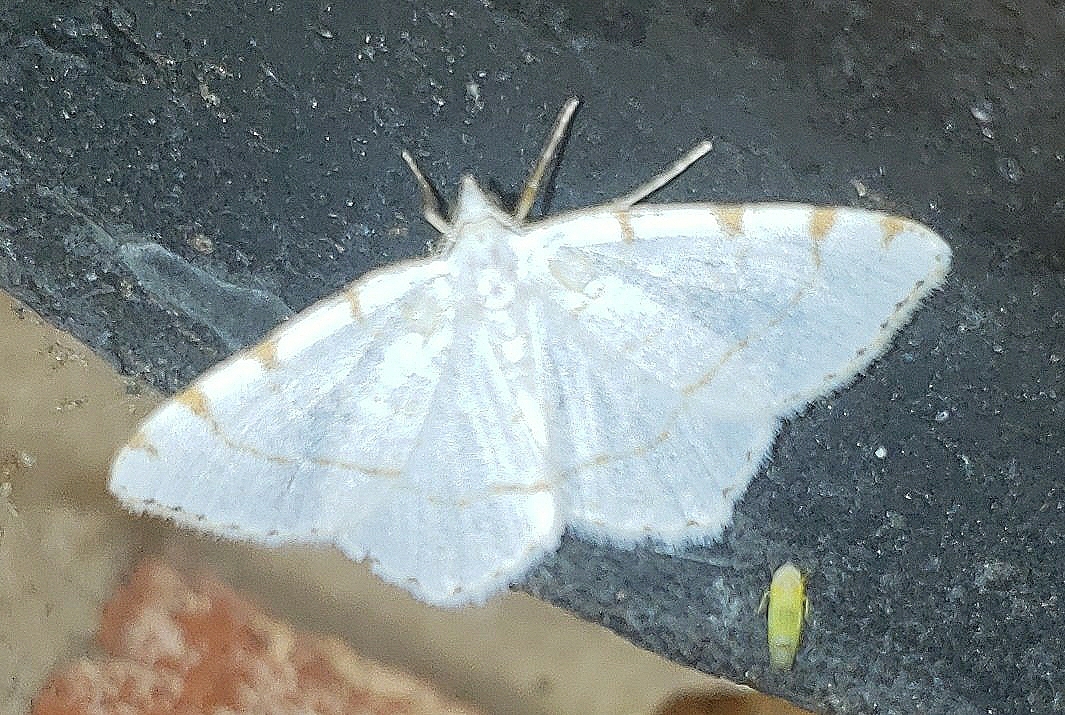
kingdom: Animalia
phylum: Arthropoda
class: Insecta
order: Lepidoptera
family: Geometridae
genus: Macaria
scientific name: Macaria pustularia
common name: Lesser maple spanworm moth
